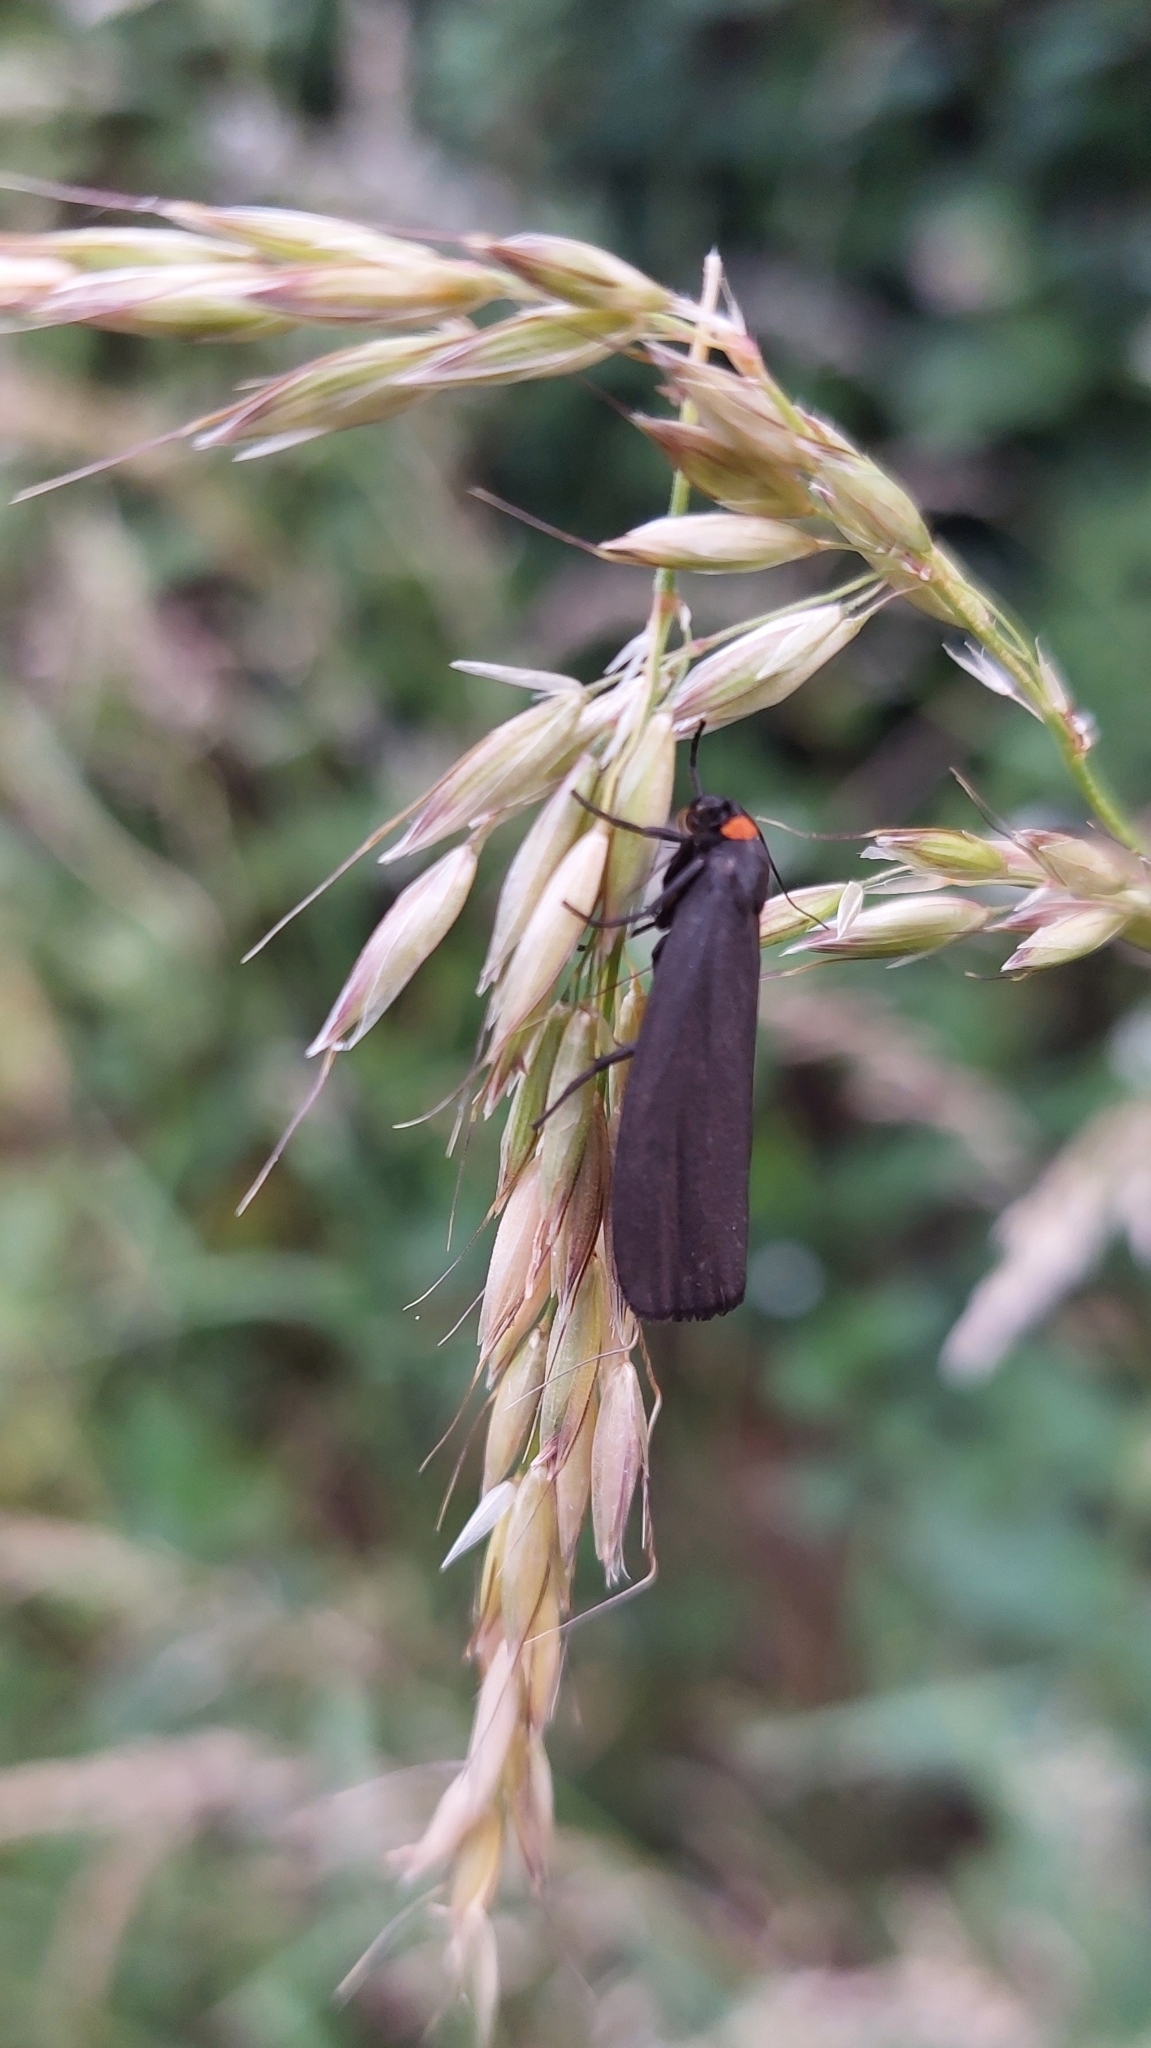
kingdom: Animalia
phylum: Arthropoda
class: Insecta
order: Lepidoptera
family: Erebidae
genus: Atolmis
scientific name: Atolmis rubricollis
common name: Red-necked footman
